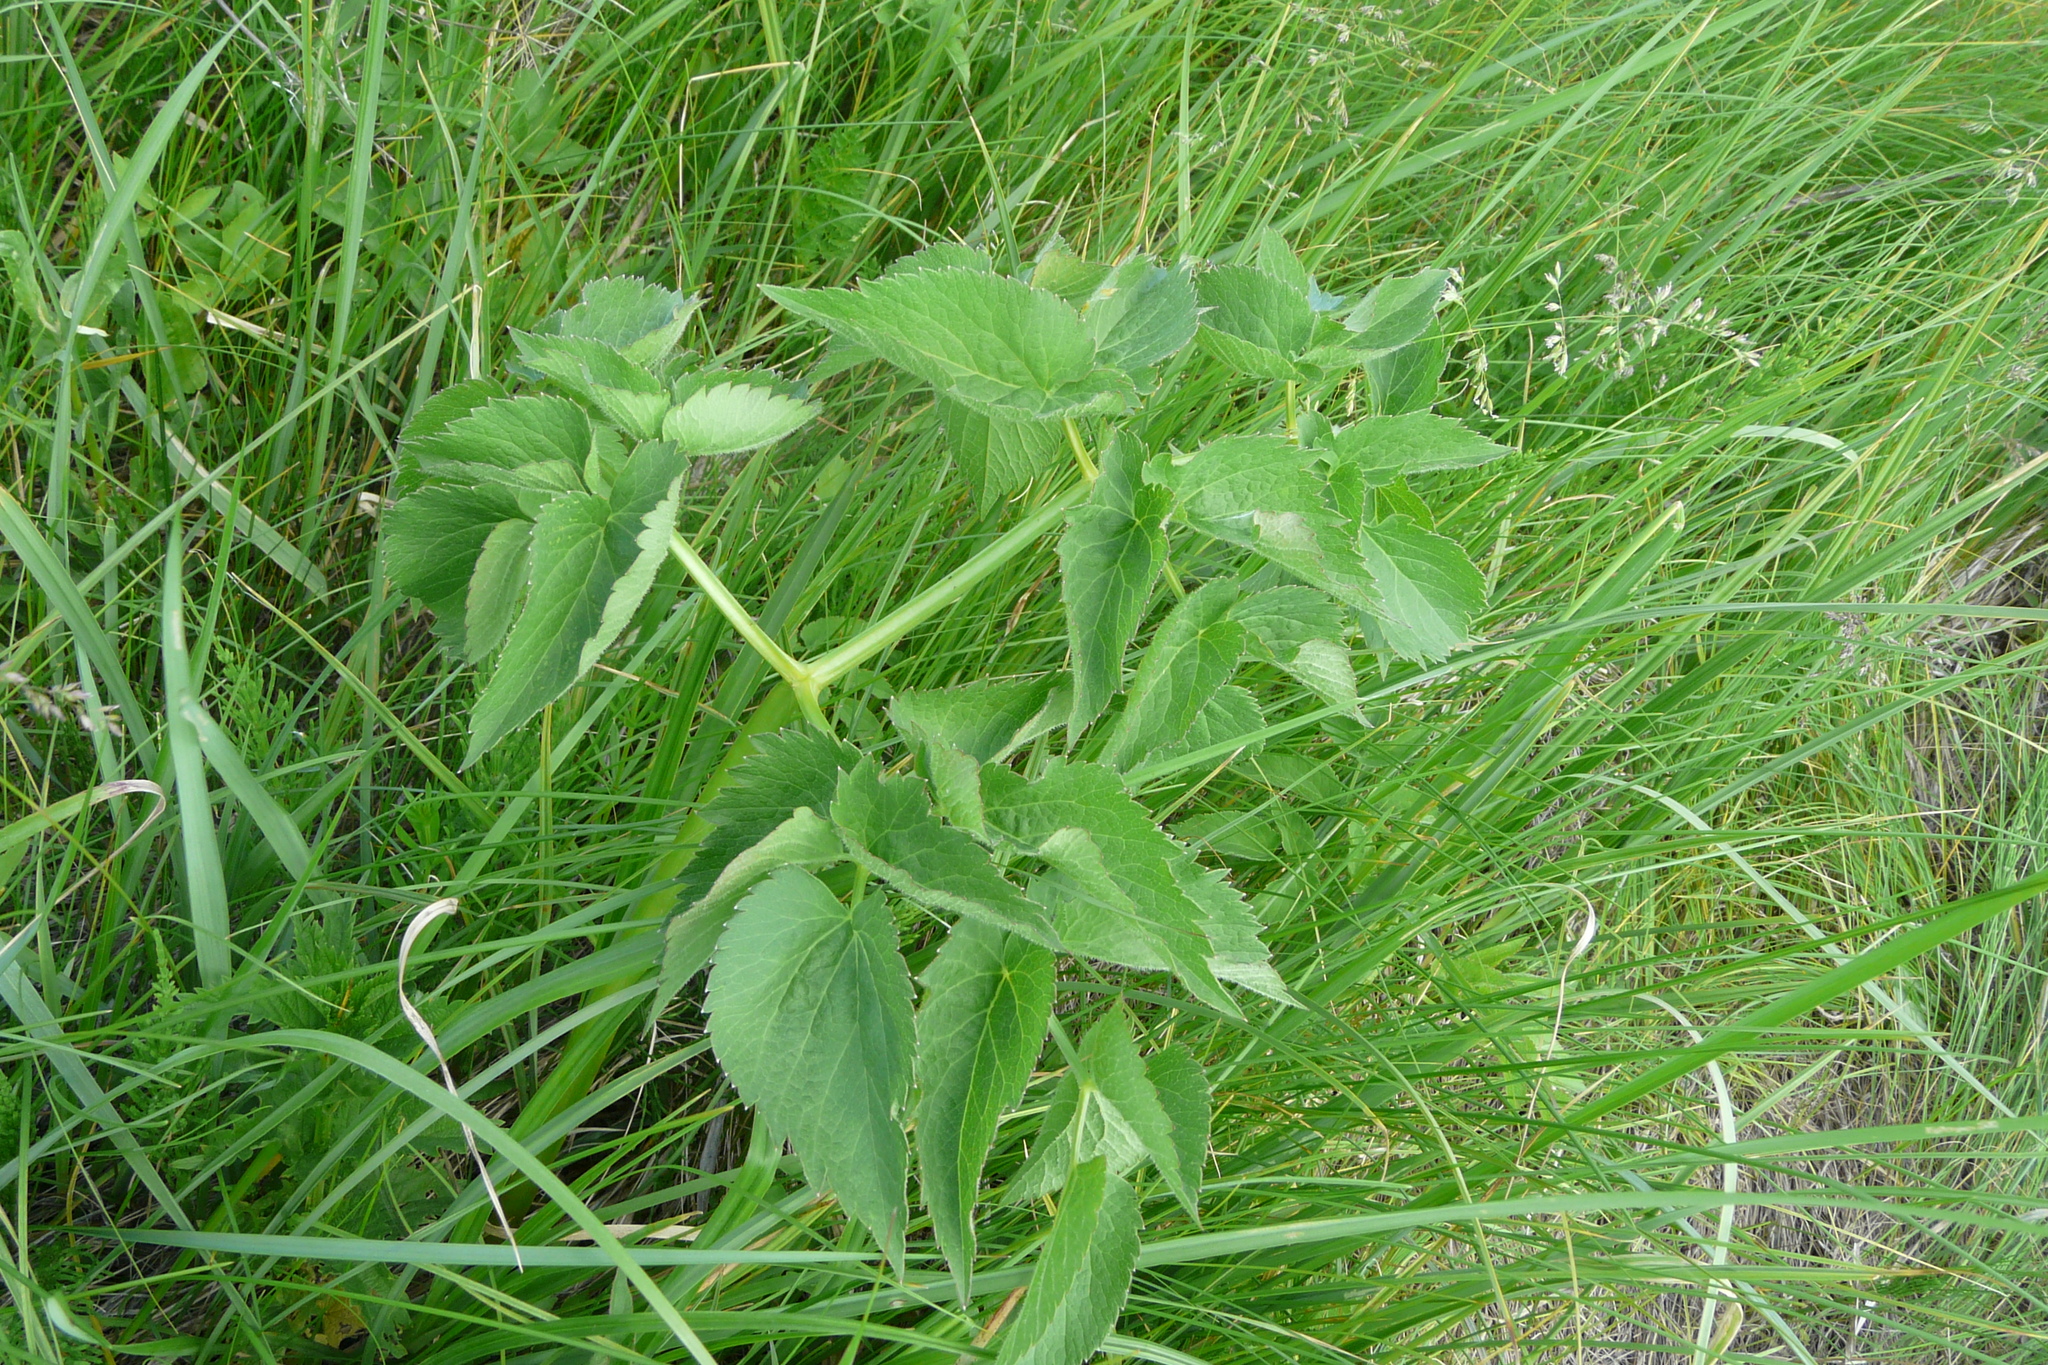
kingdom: Plantae
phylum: Tracheophyta
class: Magnoliopsida
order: Apiales
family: Apiaceae
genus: Ostericum
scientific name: Ostericum palustre
